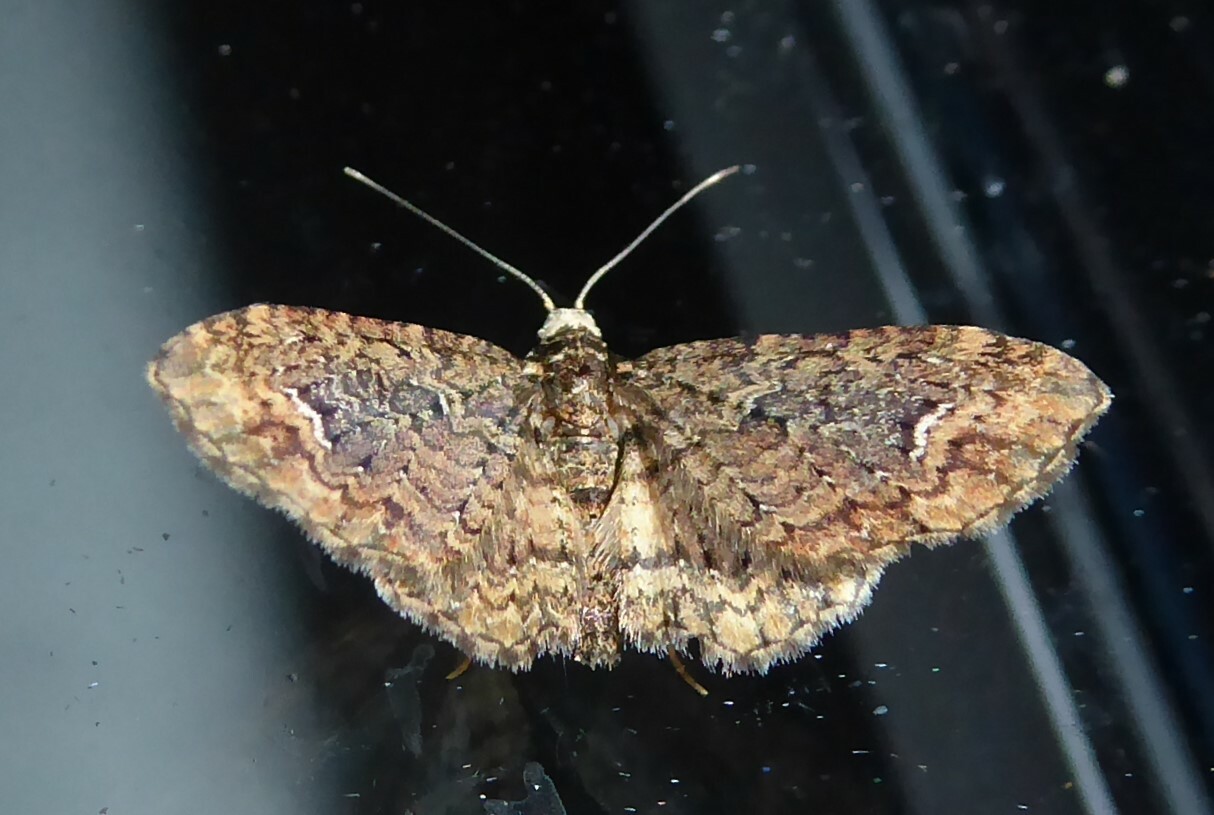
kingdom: Animalia
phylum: Arthropoda
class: Insecta
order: Lepidoptera
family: Geometridae
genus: Pasiphilodes
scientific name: Pasiphilodes testulata
